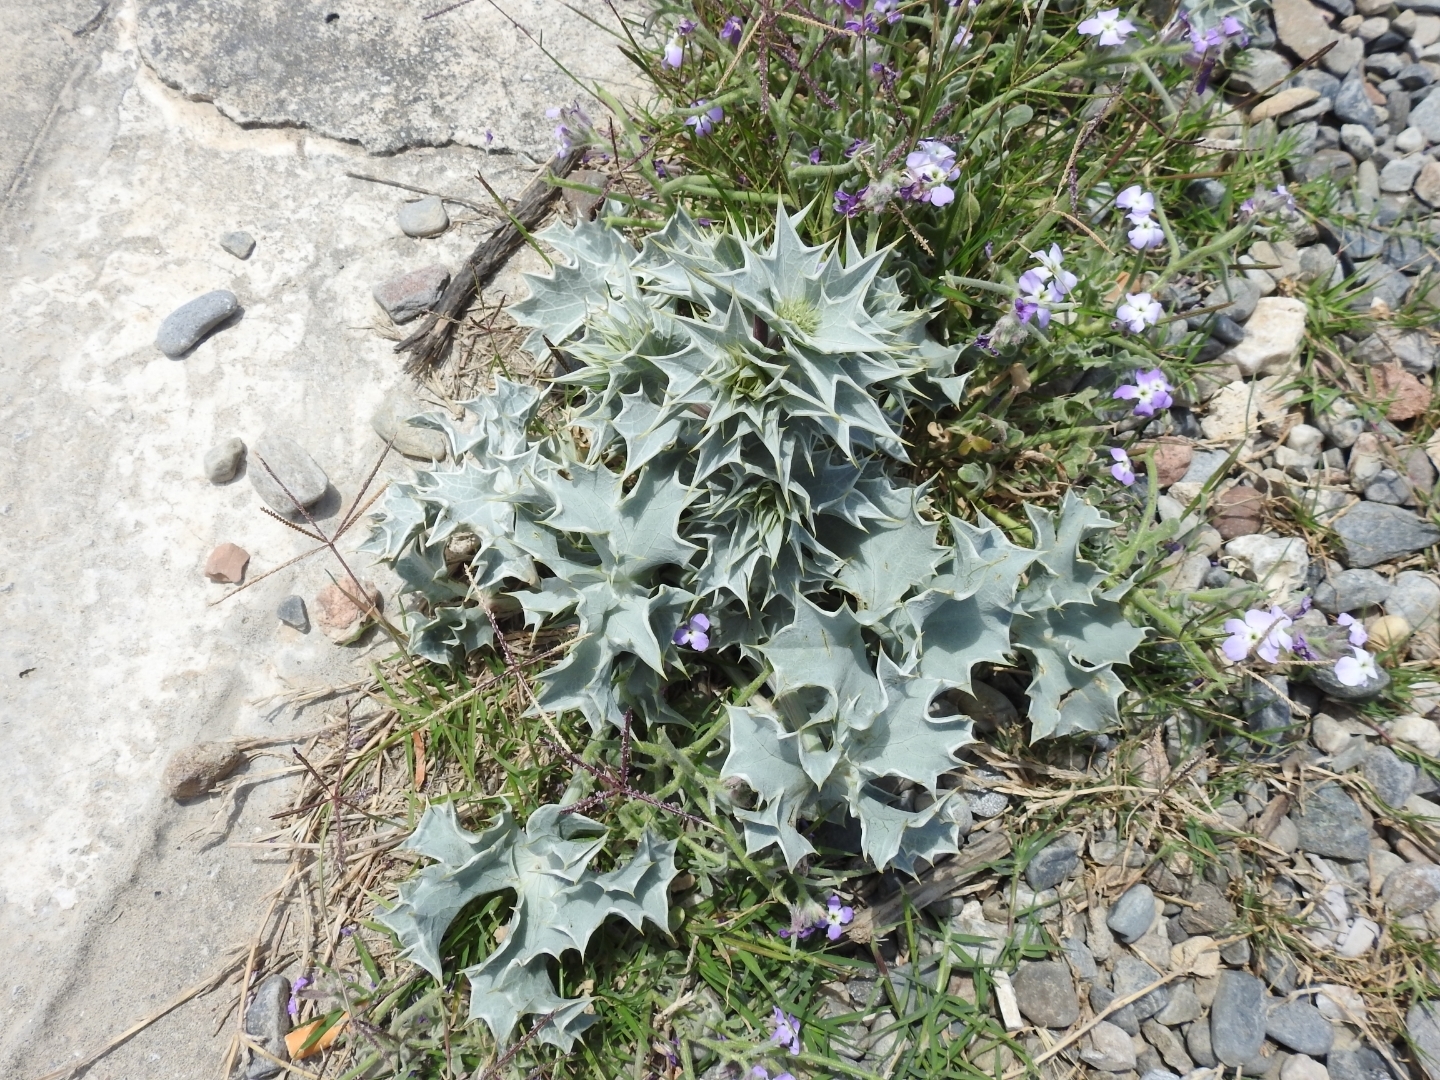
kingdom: Plantae
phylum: Tracheophyta
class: Magnoliopsida
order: Apiales
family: Apiaceae
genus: Eryngium
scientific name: Eryngium maritimum
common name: Sea-holly
